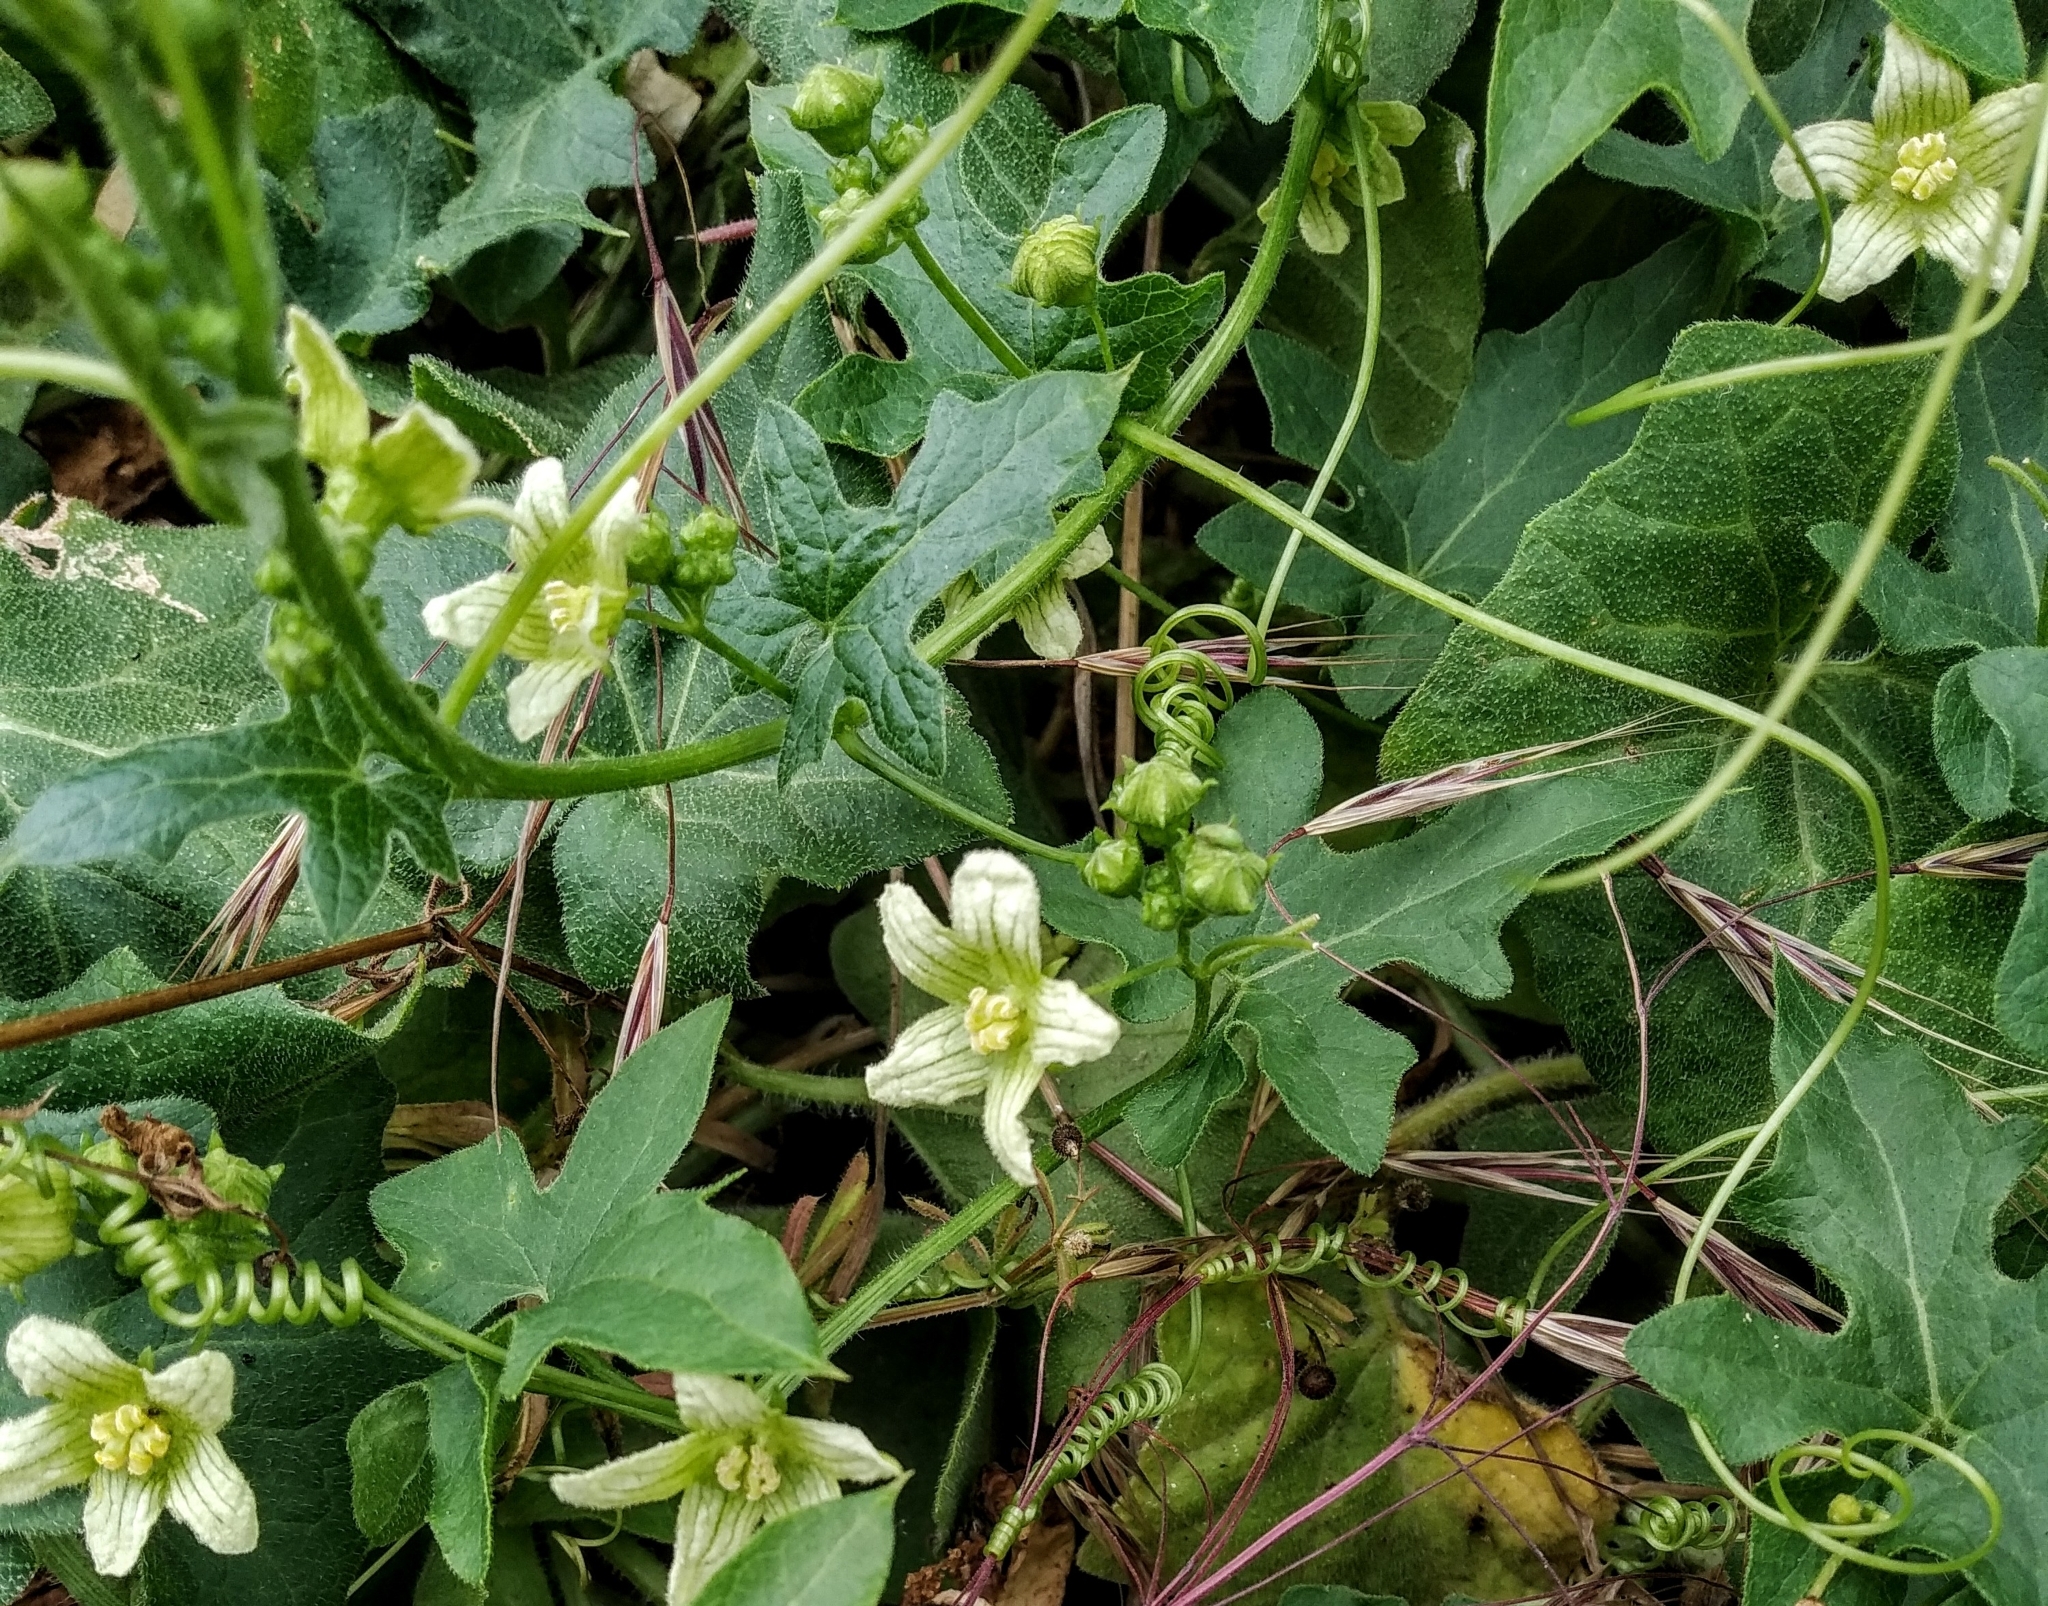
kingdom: Plantae
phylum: Tracheophyta
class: Magnoliopsida
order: Cucurbitales
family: Cucurbitaceae
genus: Bryonia
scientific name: Bryonia cretica
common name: Cretan bryony
